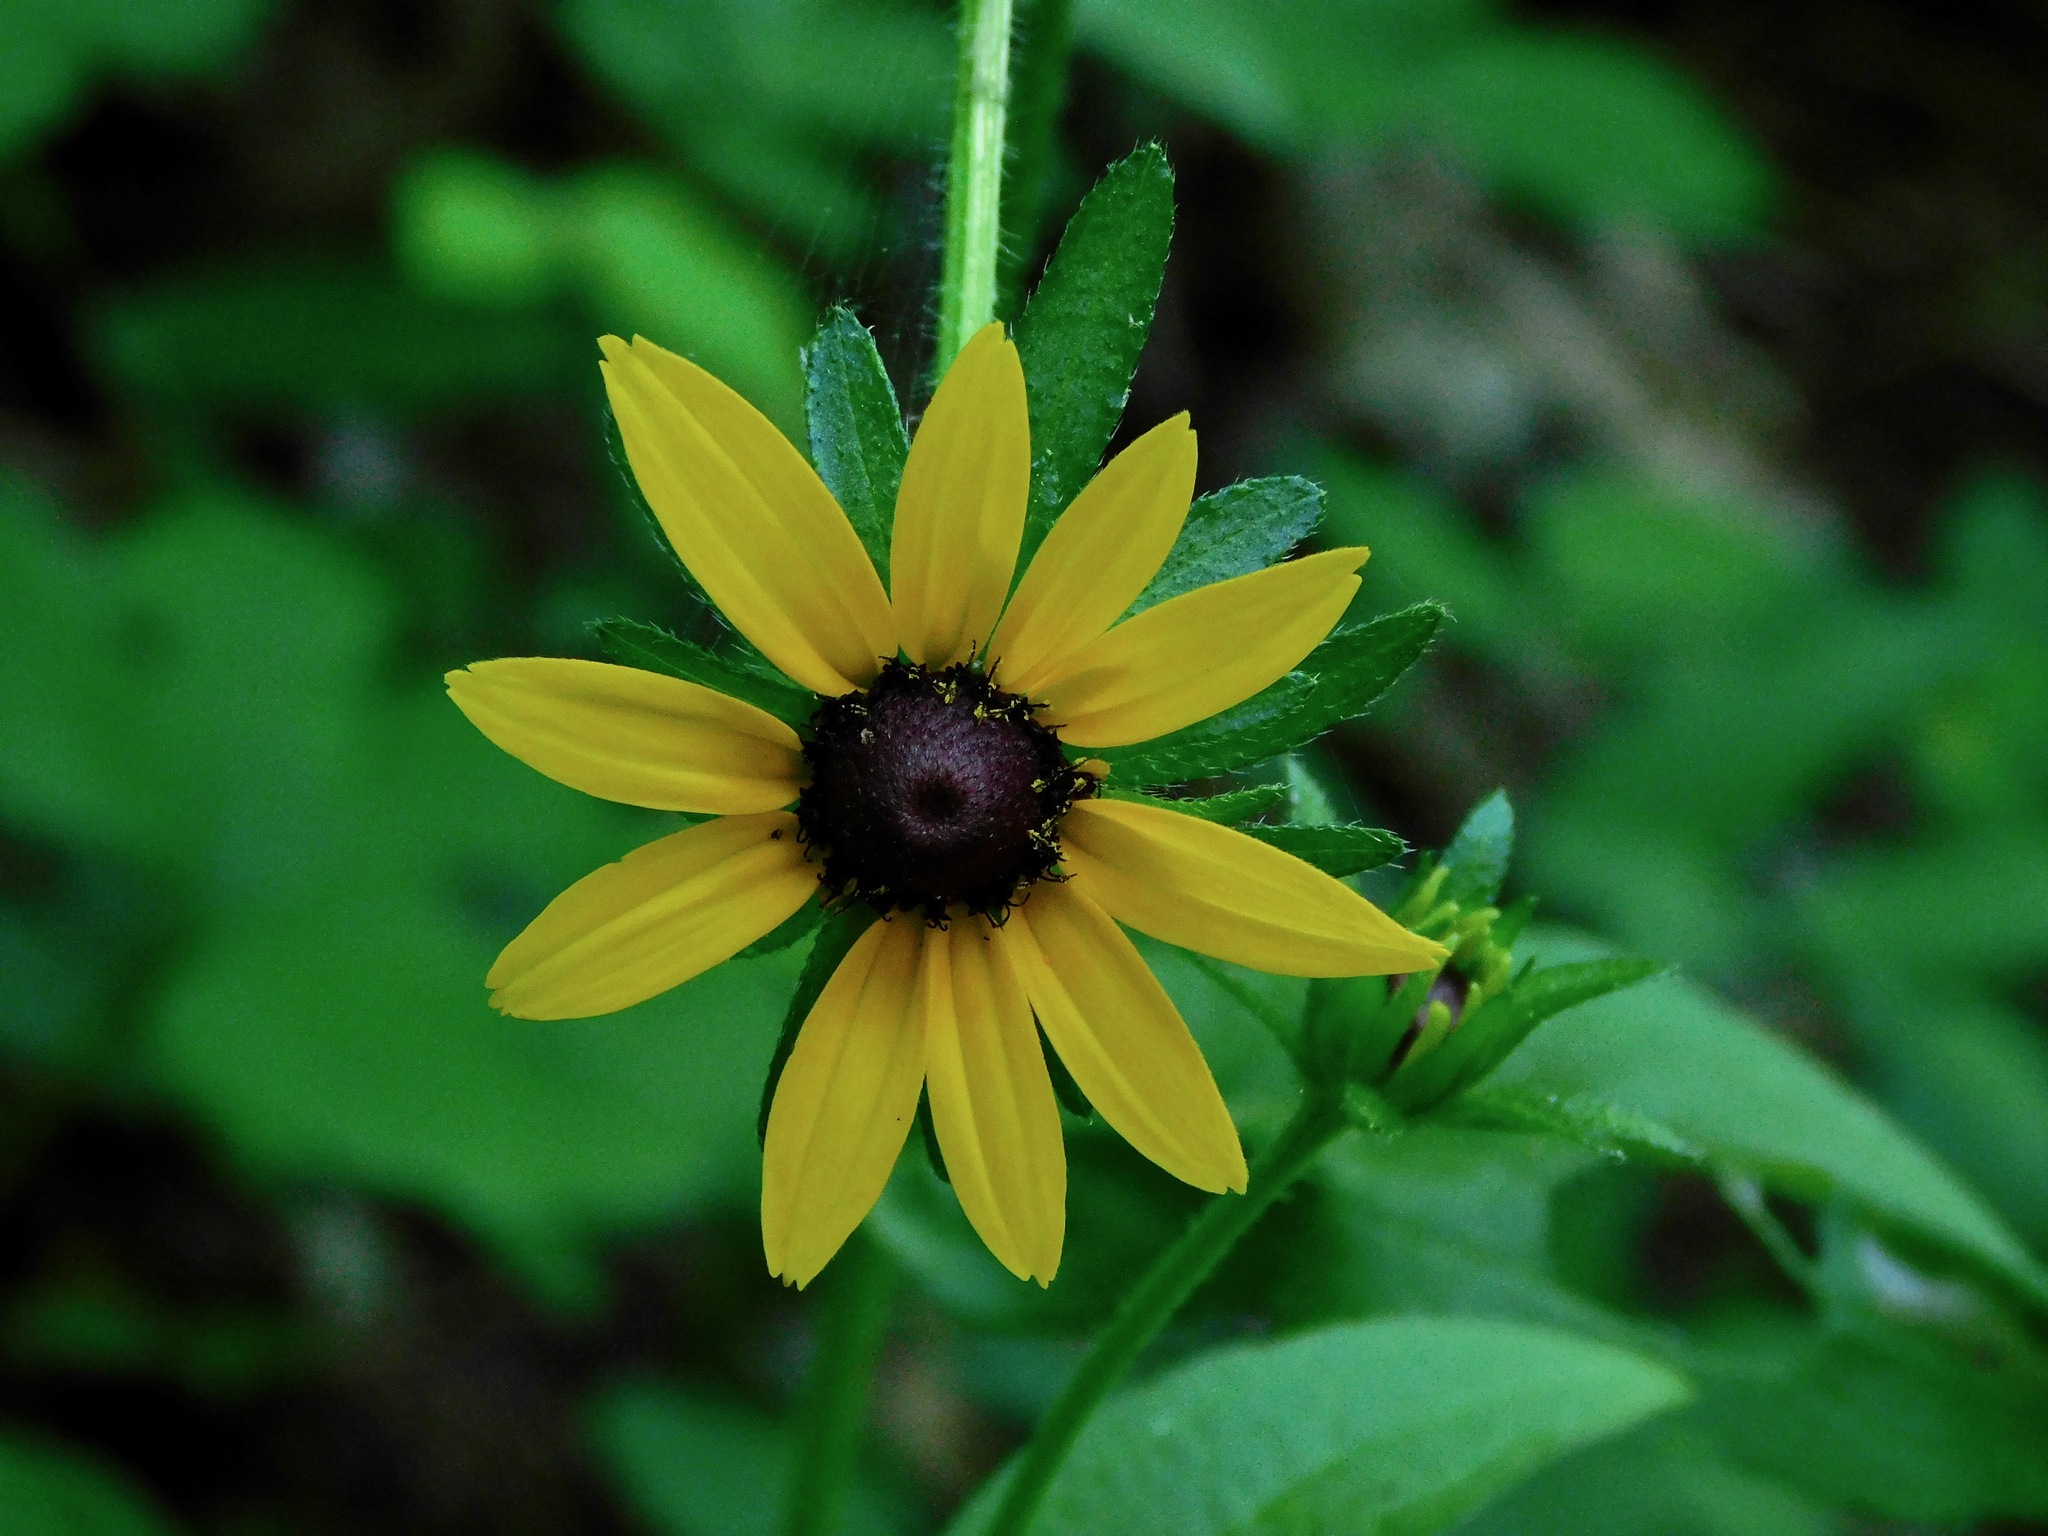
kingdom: Plantae
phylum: Tracheophyta
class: Magnoliopsida
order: Asterales
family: Asteraceae
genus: Rudbeckia
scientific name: Rudbeckia hirta
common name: Black-eyed-susan
